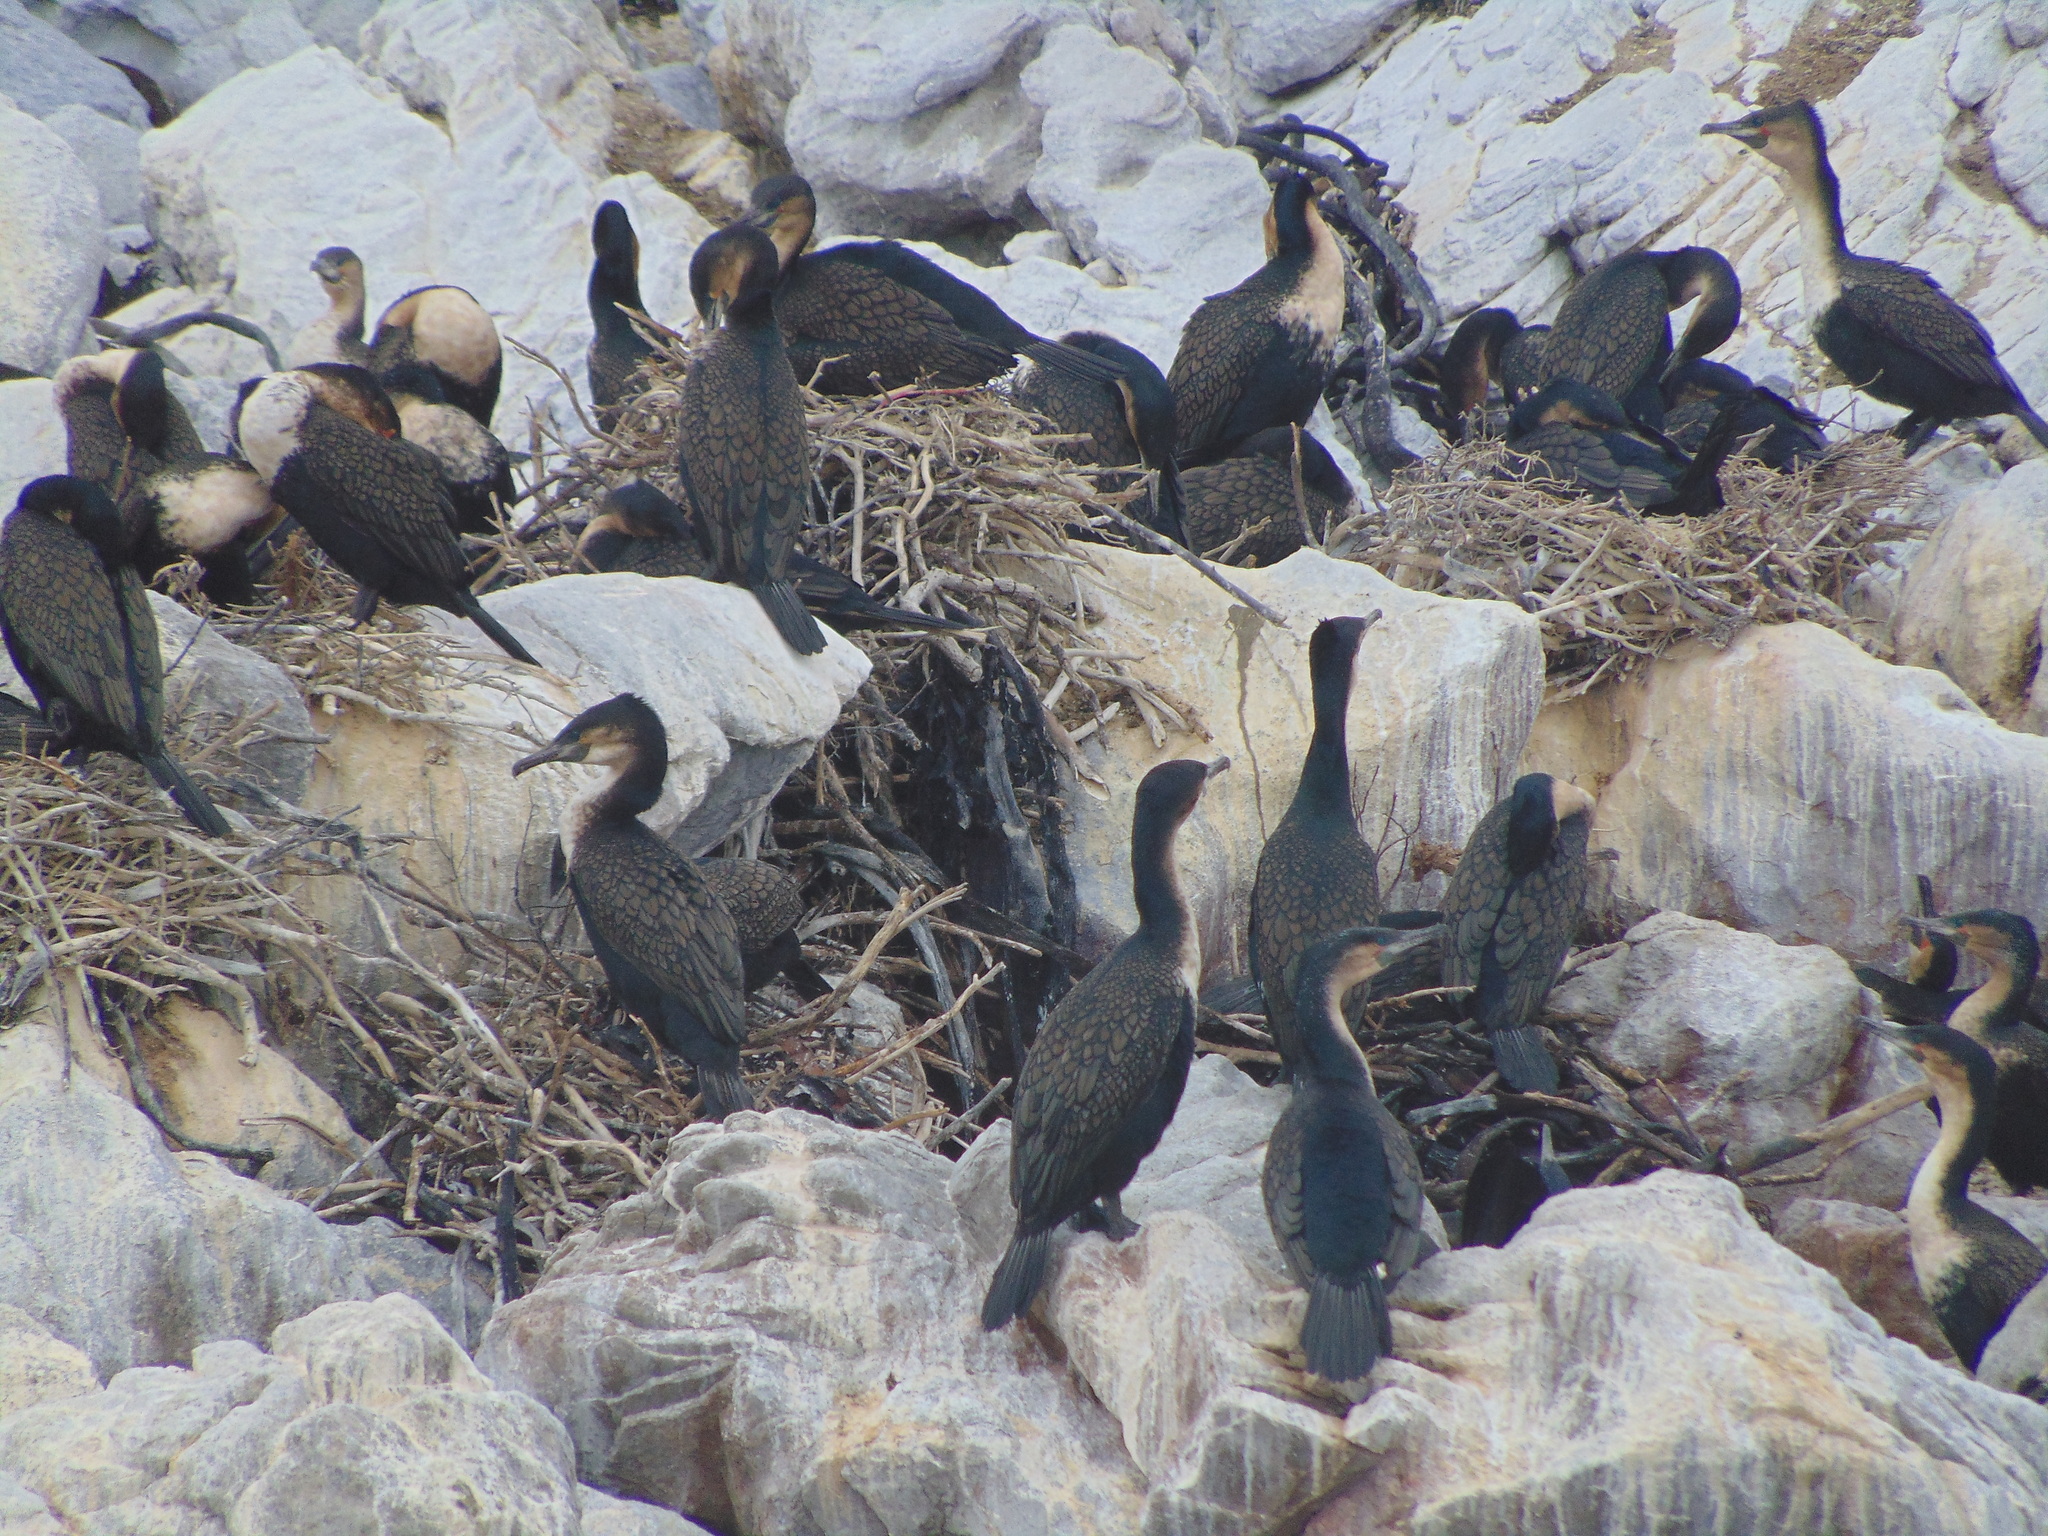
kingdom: Animalia
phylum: Chordata
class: Aves
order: Suliformes
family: Phalacrocoracidae
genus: Phalacrocorax
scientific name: Phalacrocorax carbo
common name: Great cormorant
